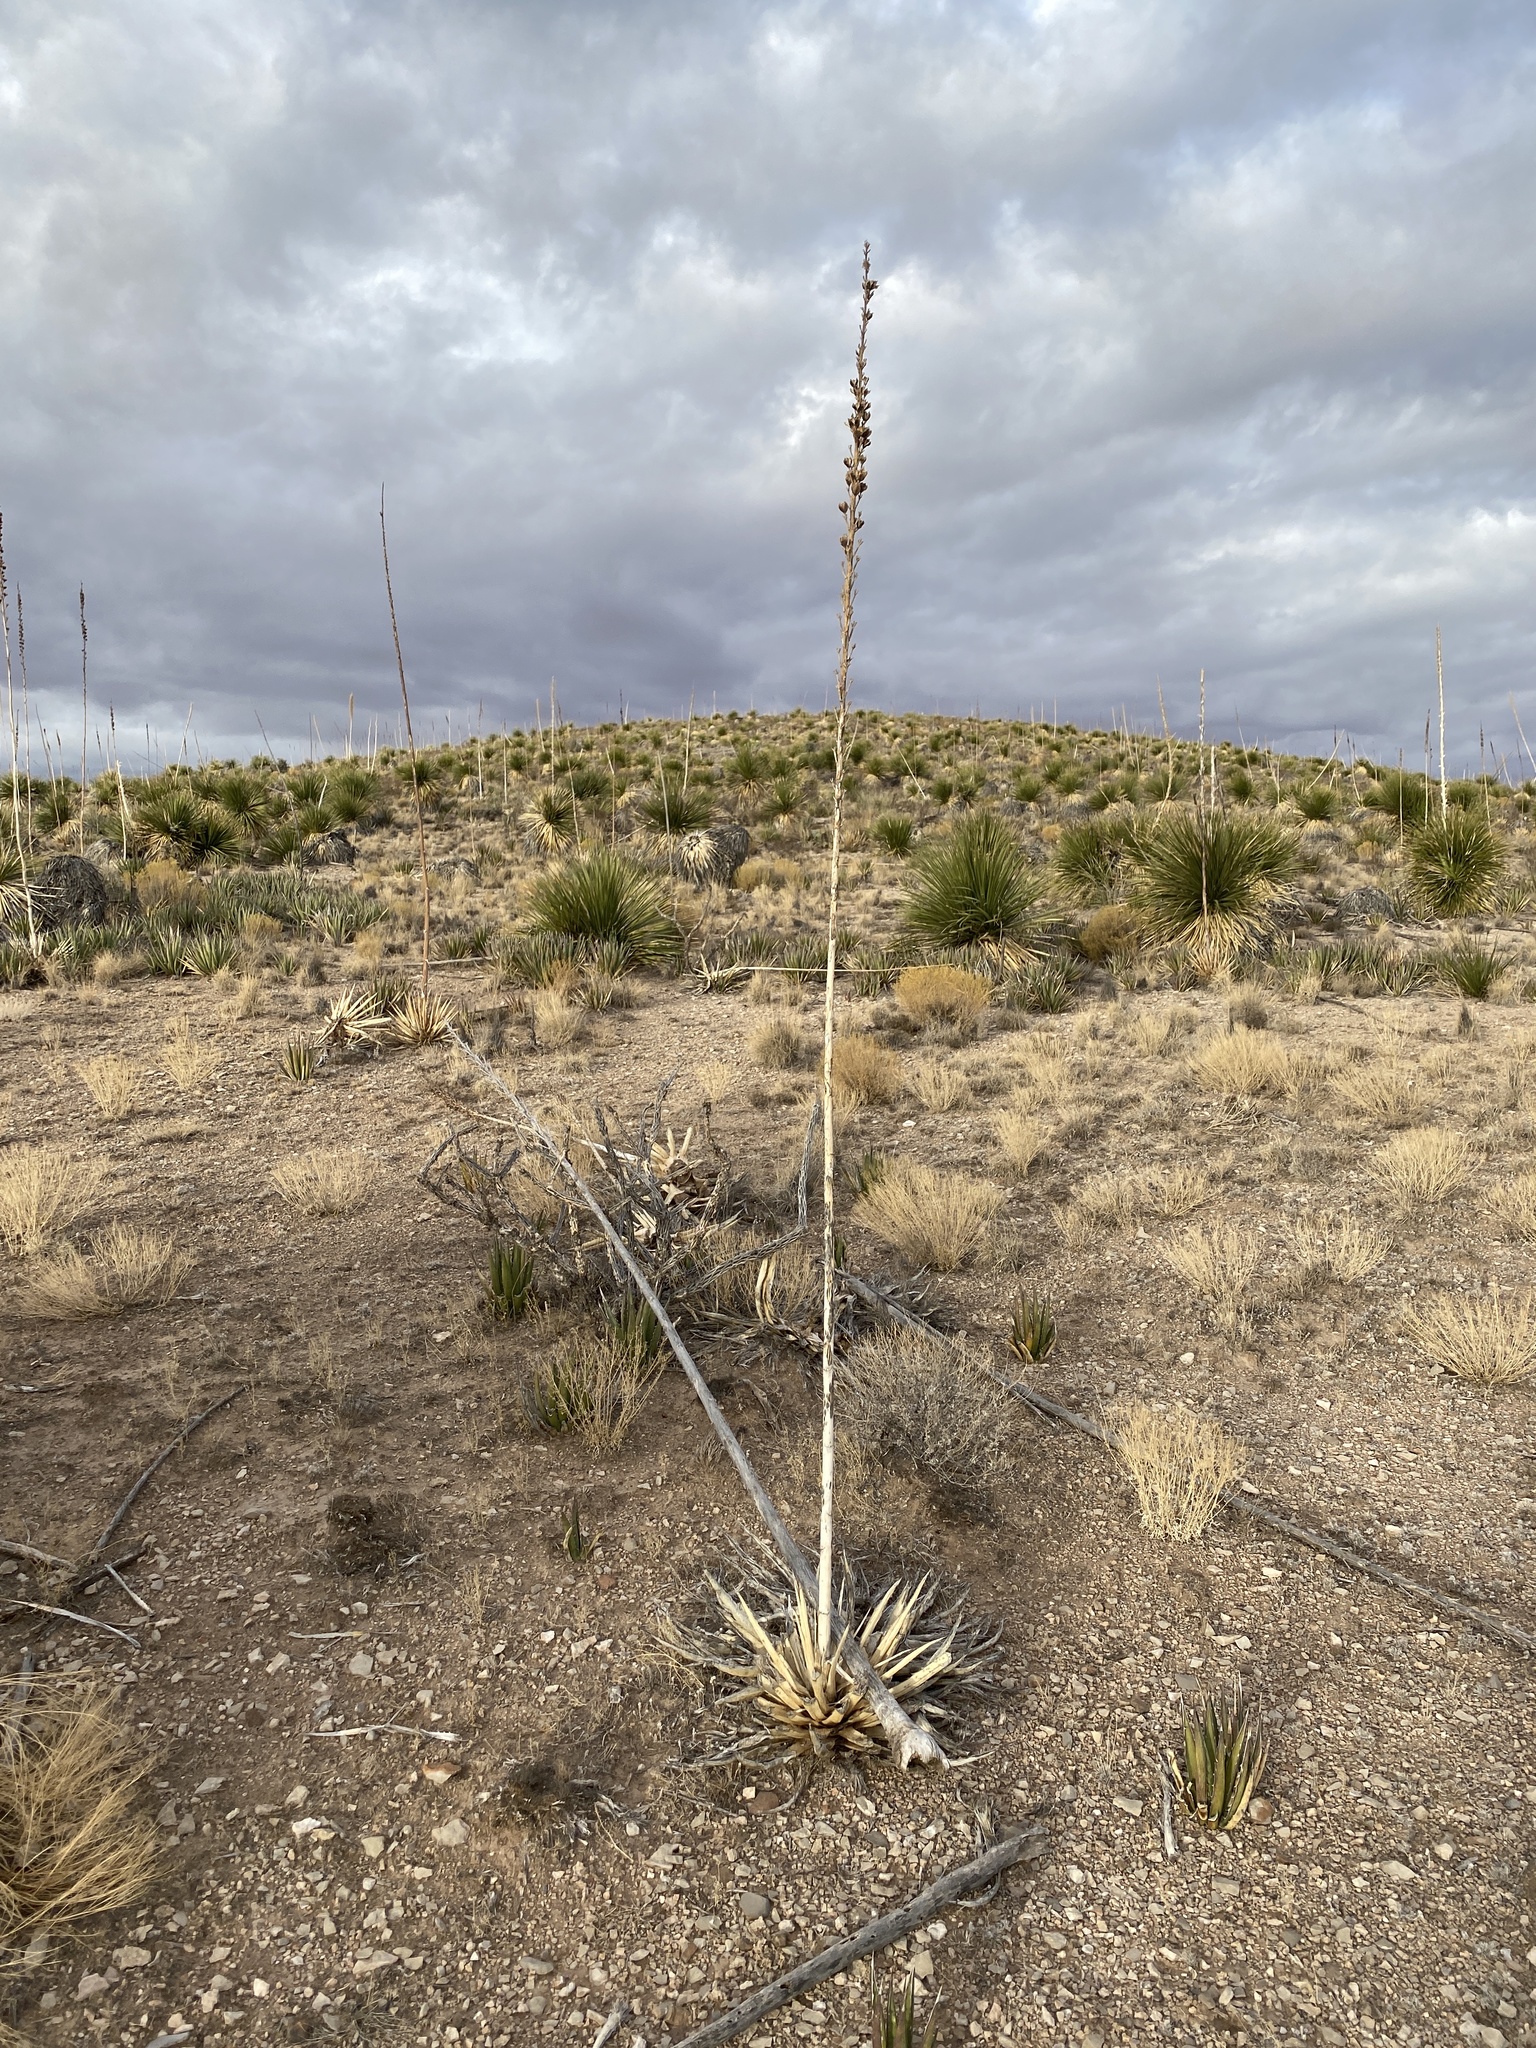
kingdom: Plantae
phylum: Tracheophyta
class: Liliopsida
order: Asparagales
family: Asparagaceae
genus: Agave
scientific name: Agave lechuguilla
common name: Lecheguilla agave
